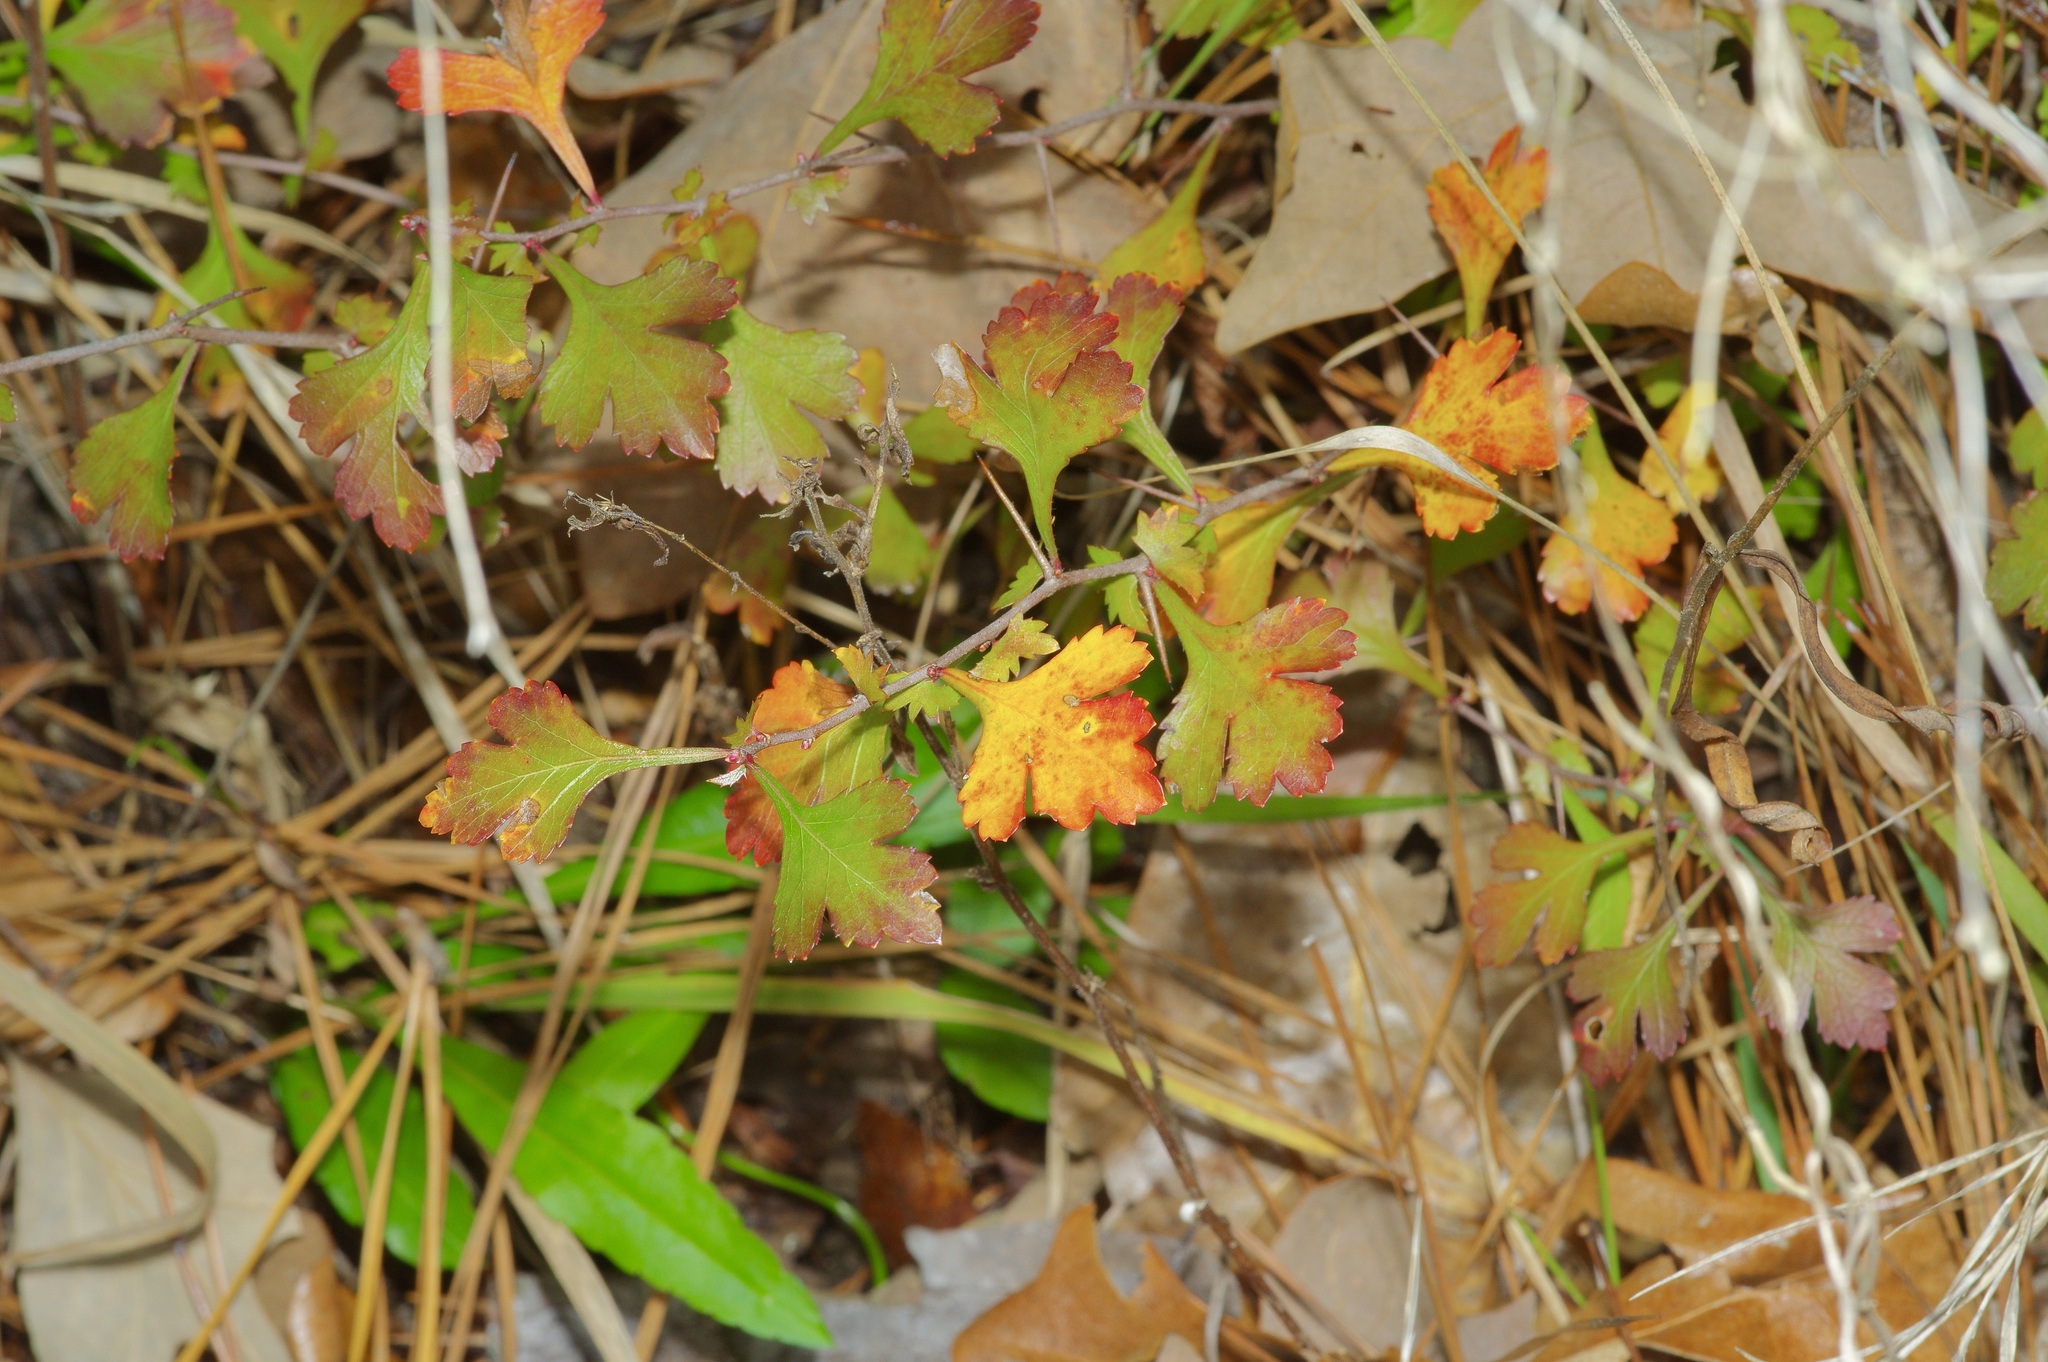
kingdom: Plantae
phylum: Tracheophyta
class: Magnoliopsida
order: Rosales
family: Rosaceae
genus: Crataegus
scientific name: Crataegus marshallii
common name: Parsley-hawthorn
